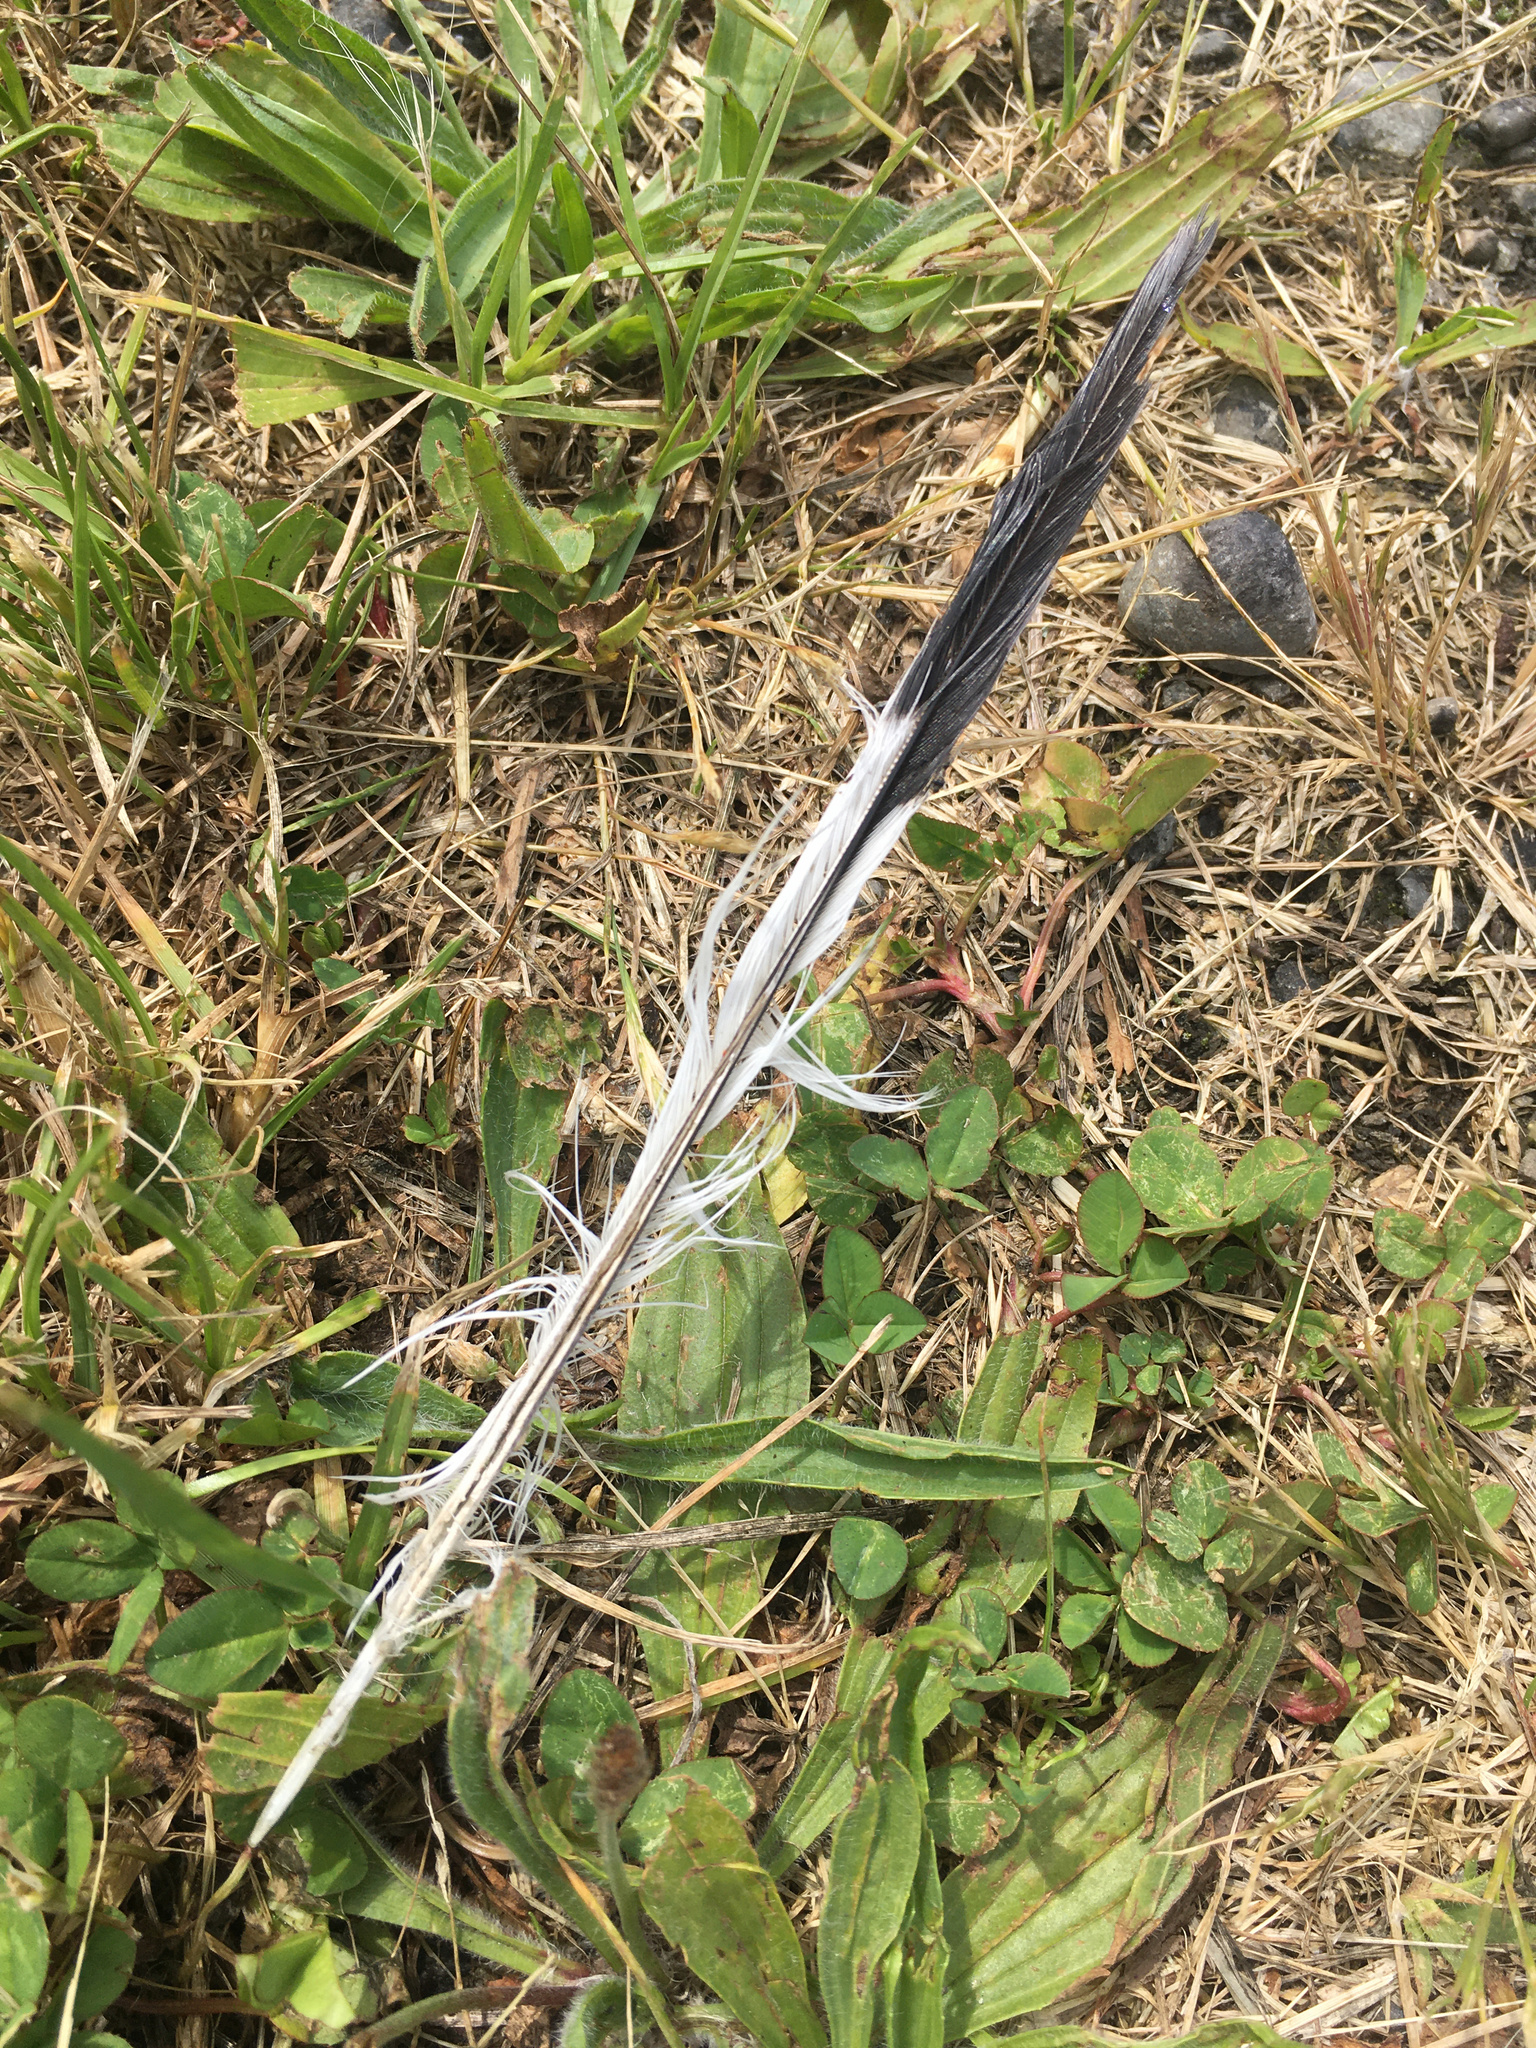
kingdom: Animalia
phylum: Chordata
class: Aves
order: Passeriformes
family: Cracticidae
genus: Gymnorhina
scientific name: Gymnorhina tibicen
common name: Australian magpie
